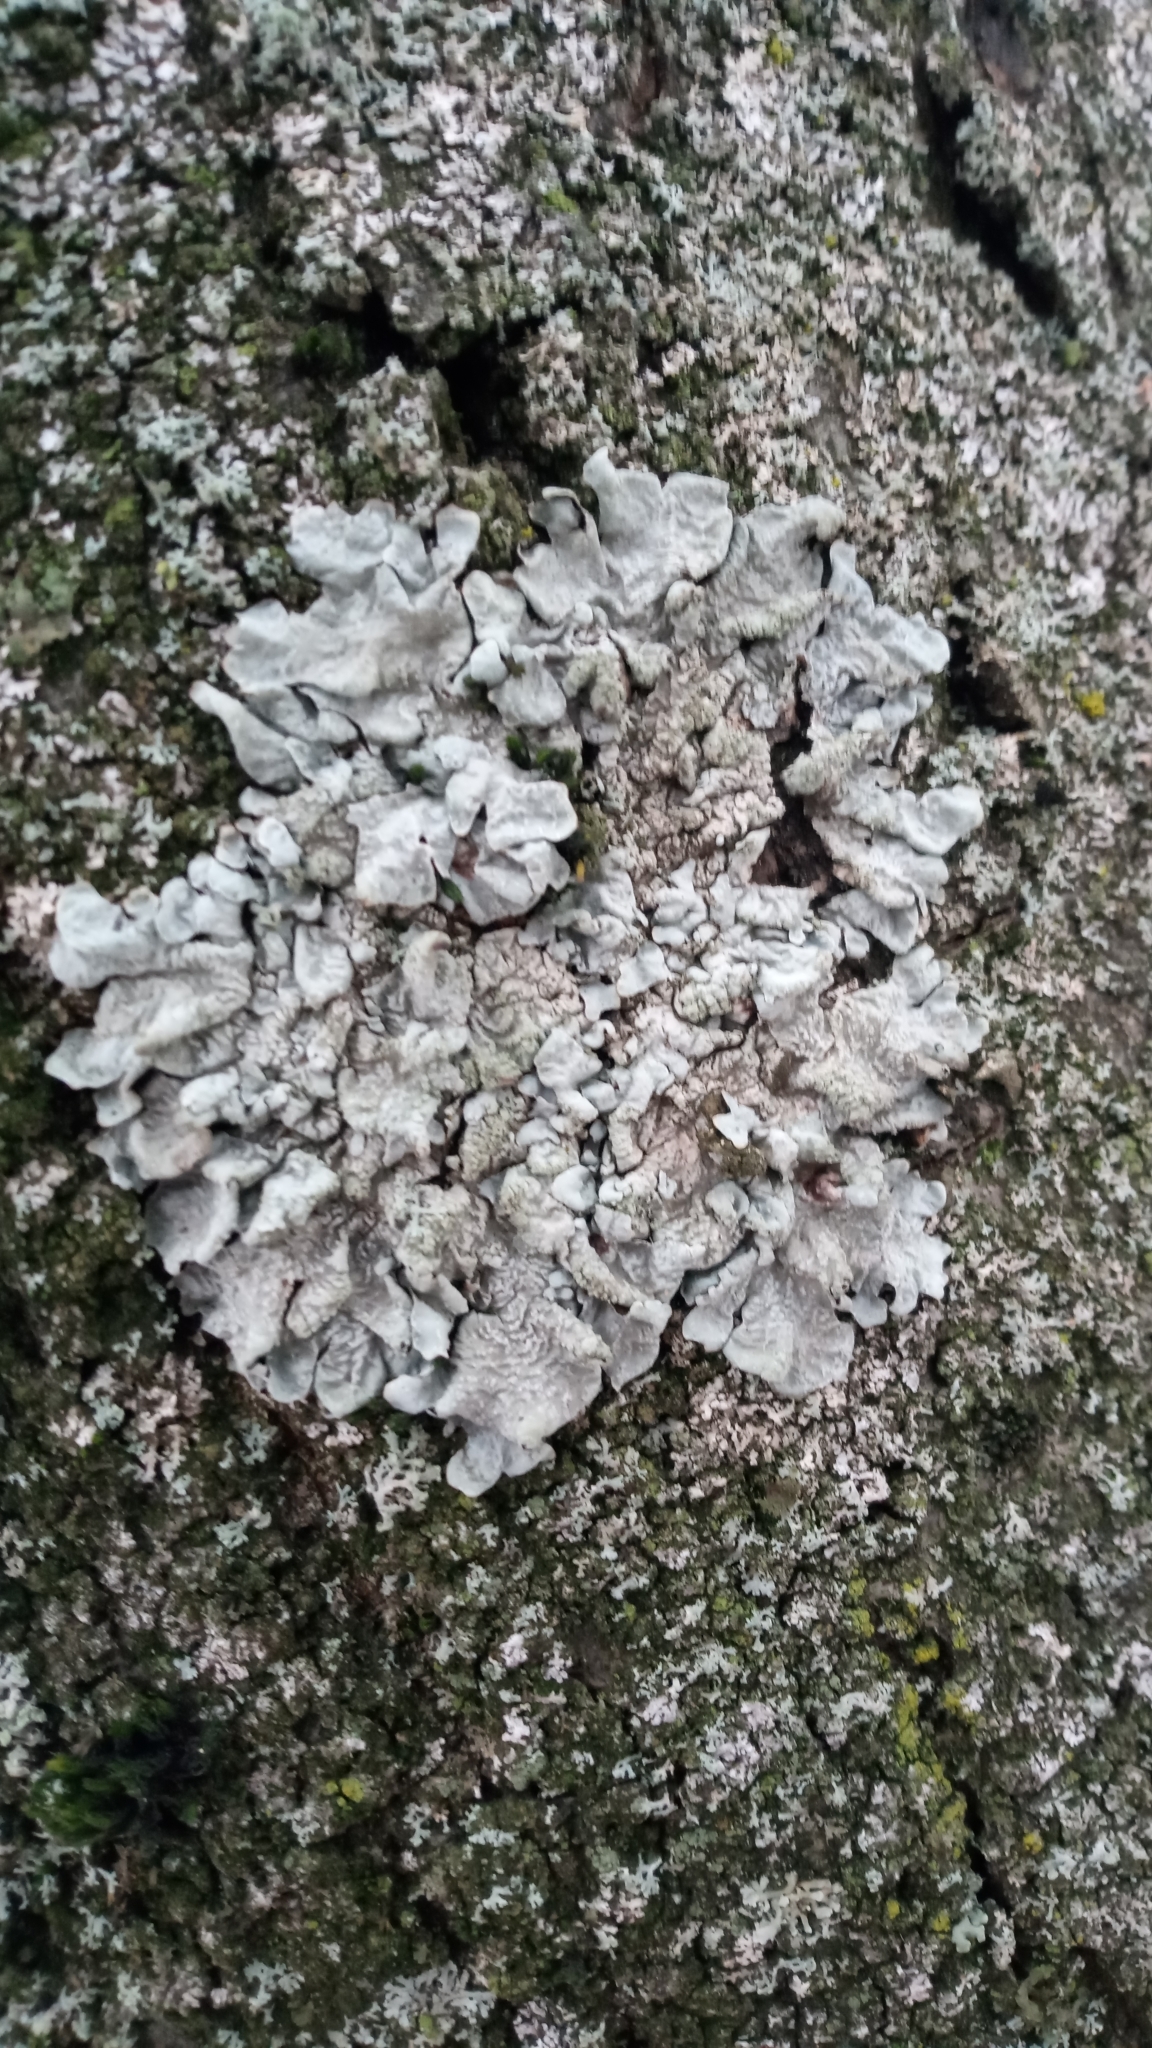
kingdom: Fungi
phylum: Ascomycota
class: Lecanoromycetes
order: Lecanorales
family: Parmeliaceae
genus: Parmelia
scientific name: Parmelia sulcata
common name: Netted shield lichen
